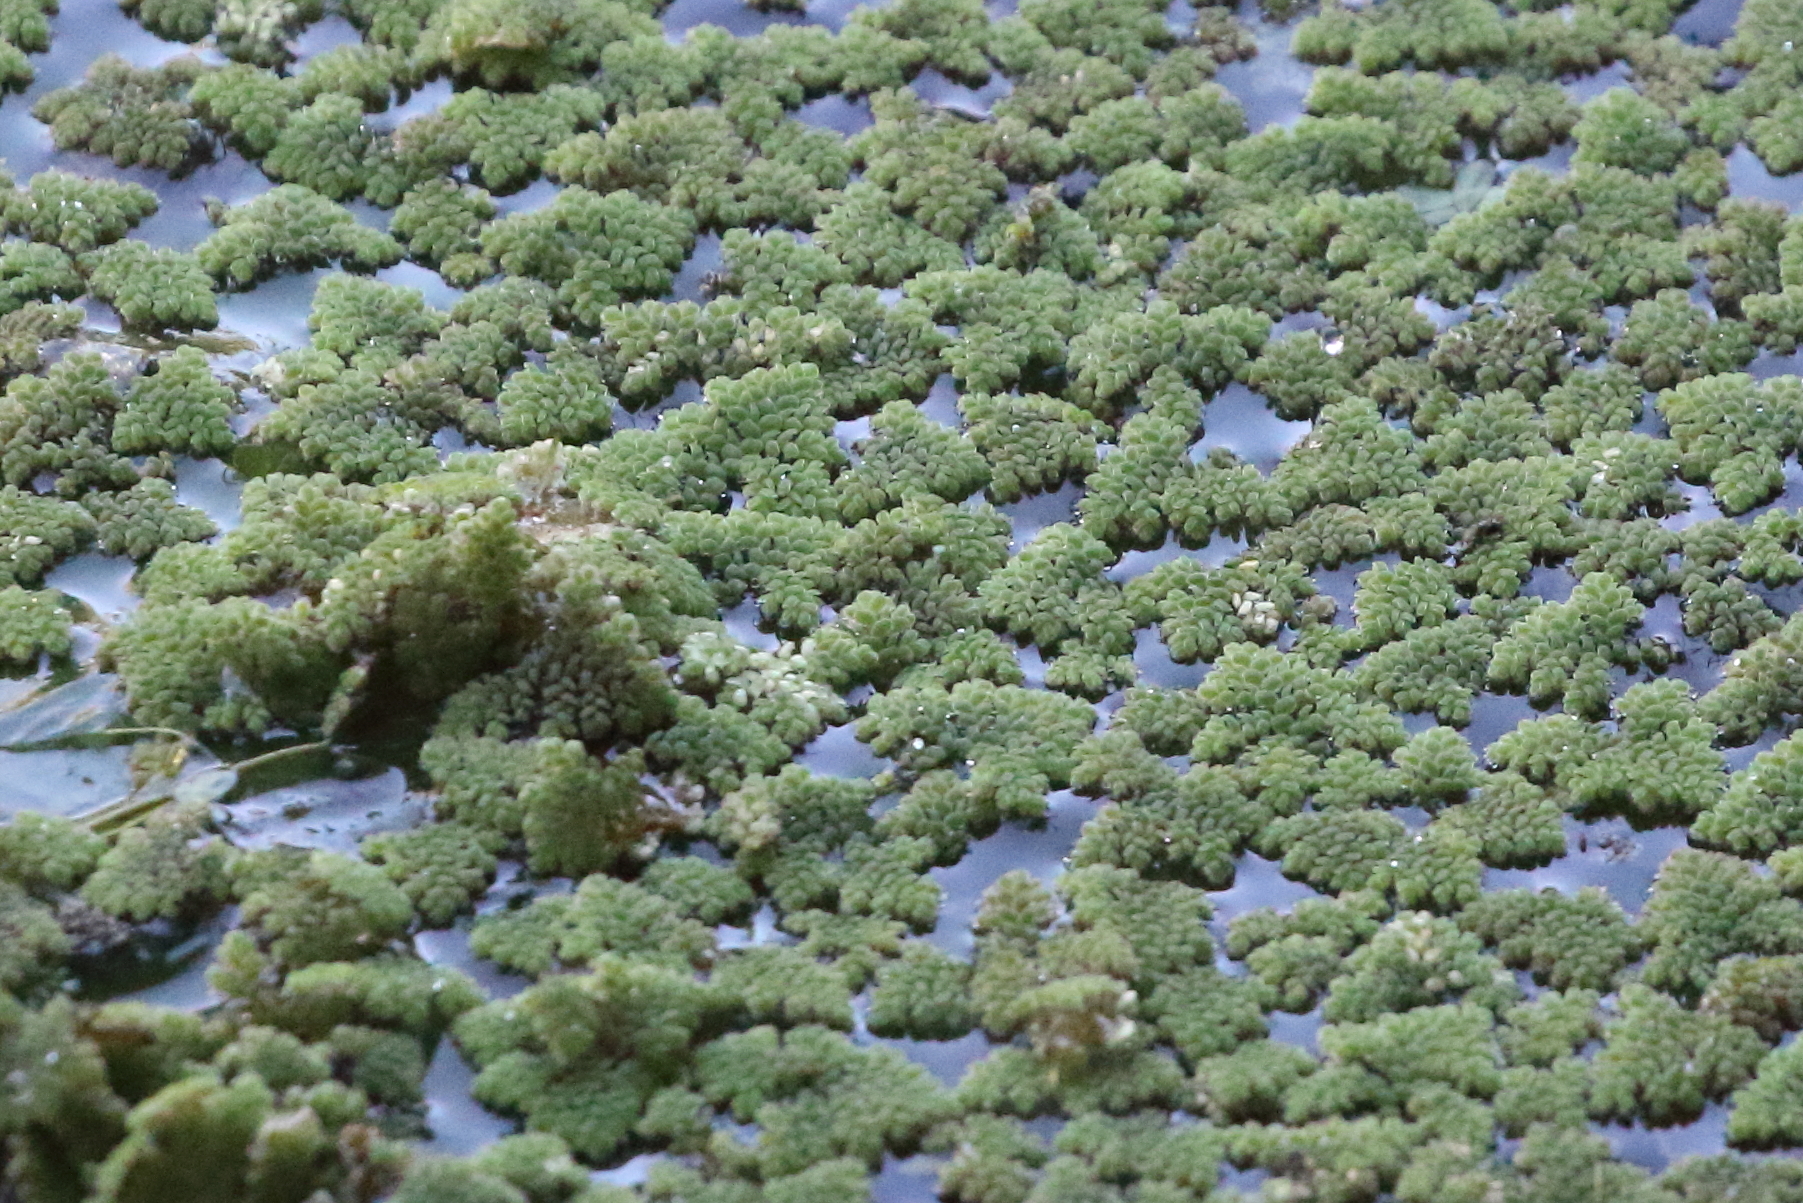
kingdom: Plantae
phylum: Tracheophyta
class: Polypodiopsida
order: Salviniales
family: Salviniaceae
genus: Azolla
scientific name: Azolla pinnata
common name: Ferny azolla
